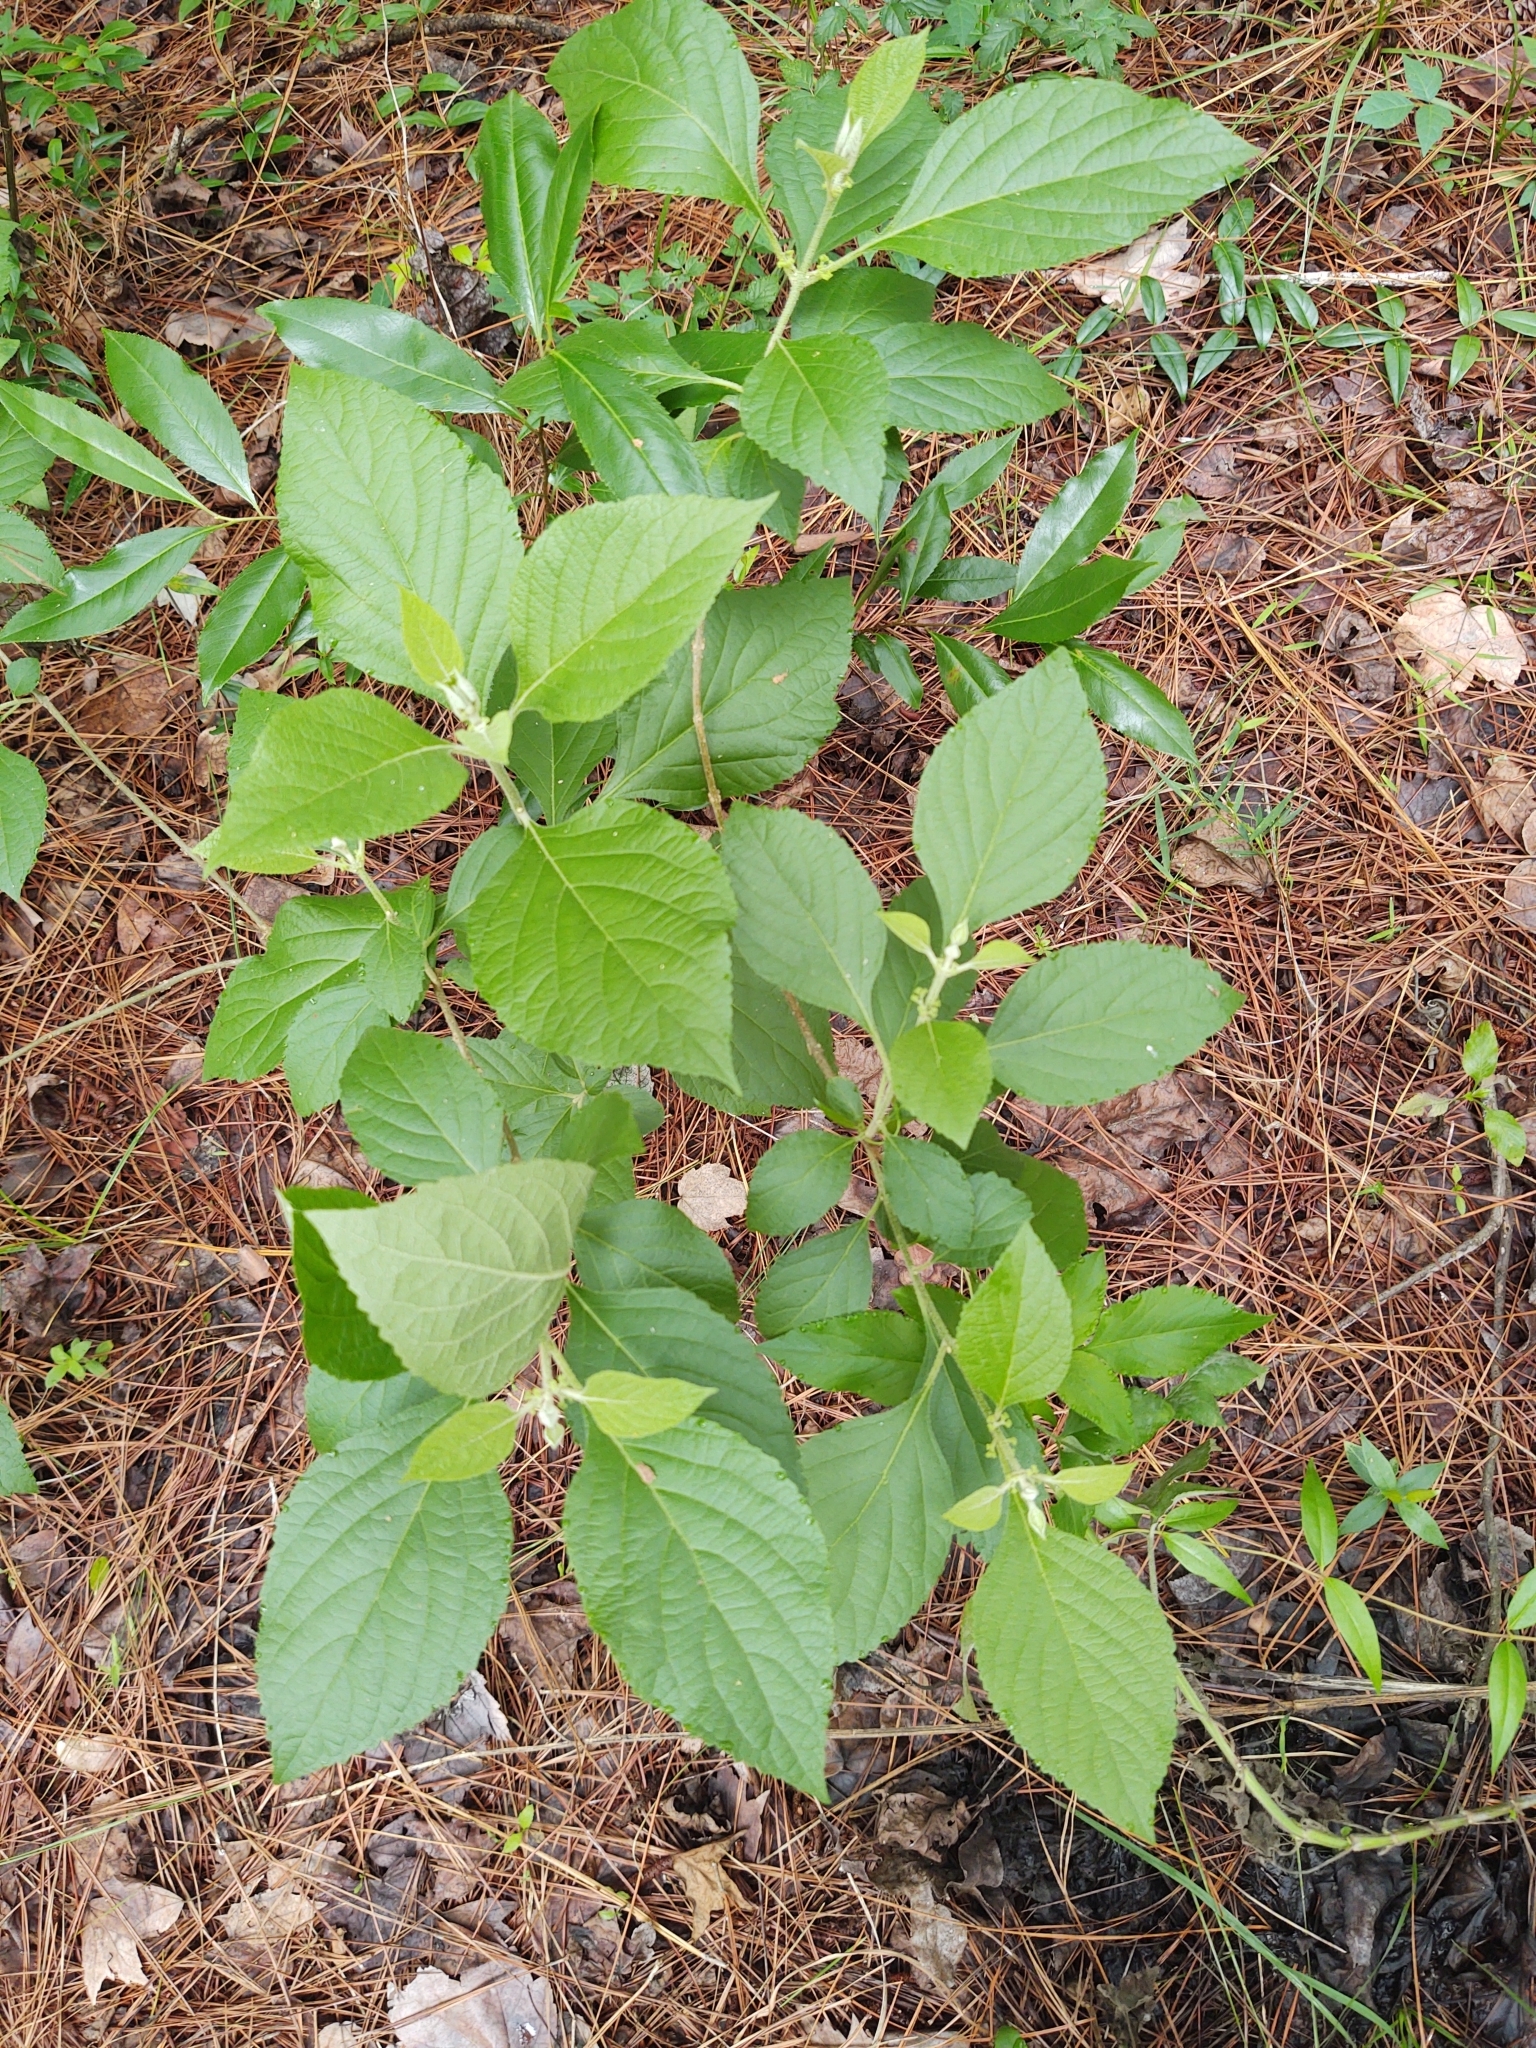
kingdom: Plantae
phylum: Tracheophyta
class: Magnoliopsida
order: Lamiales
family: Lamiaceae
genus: Callicarpa
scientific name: Callicarpa americana
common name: American beautyberry
